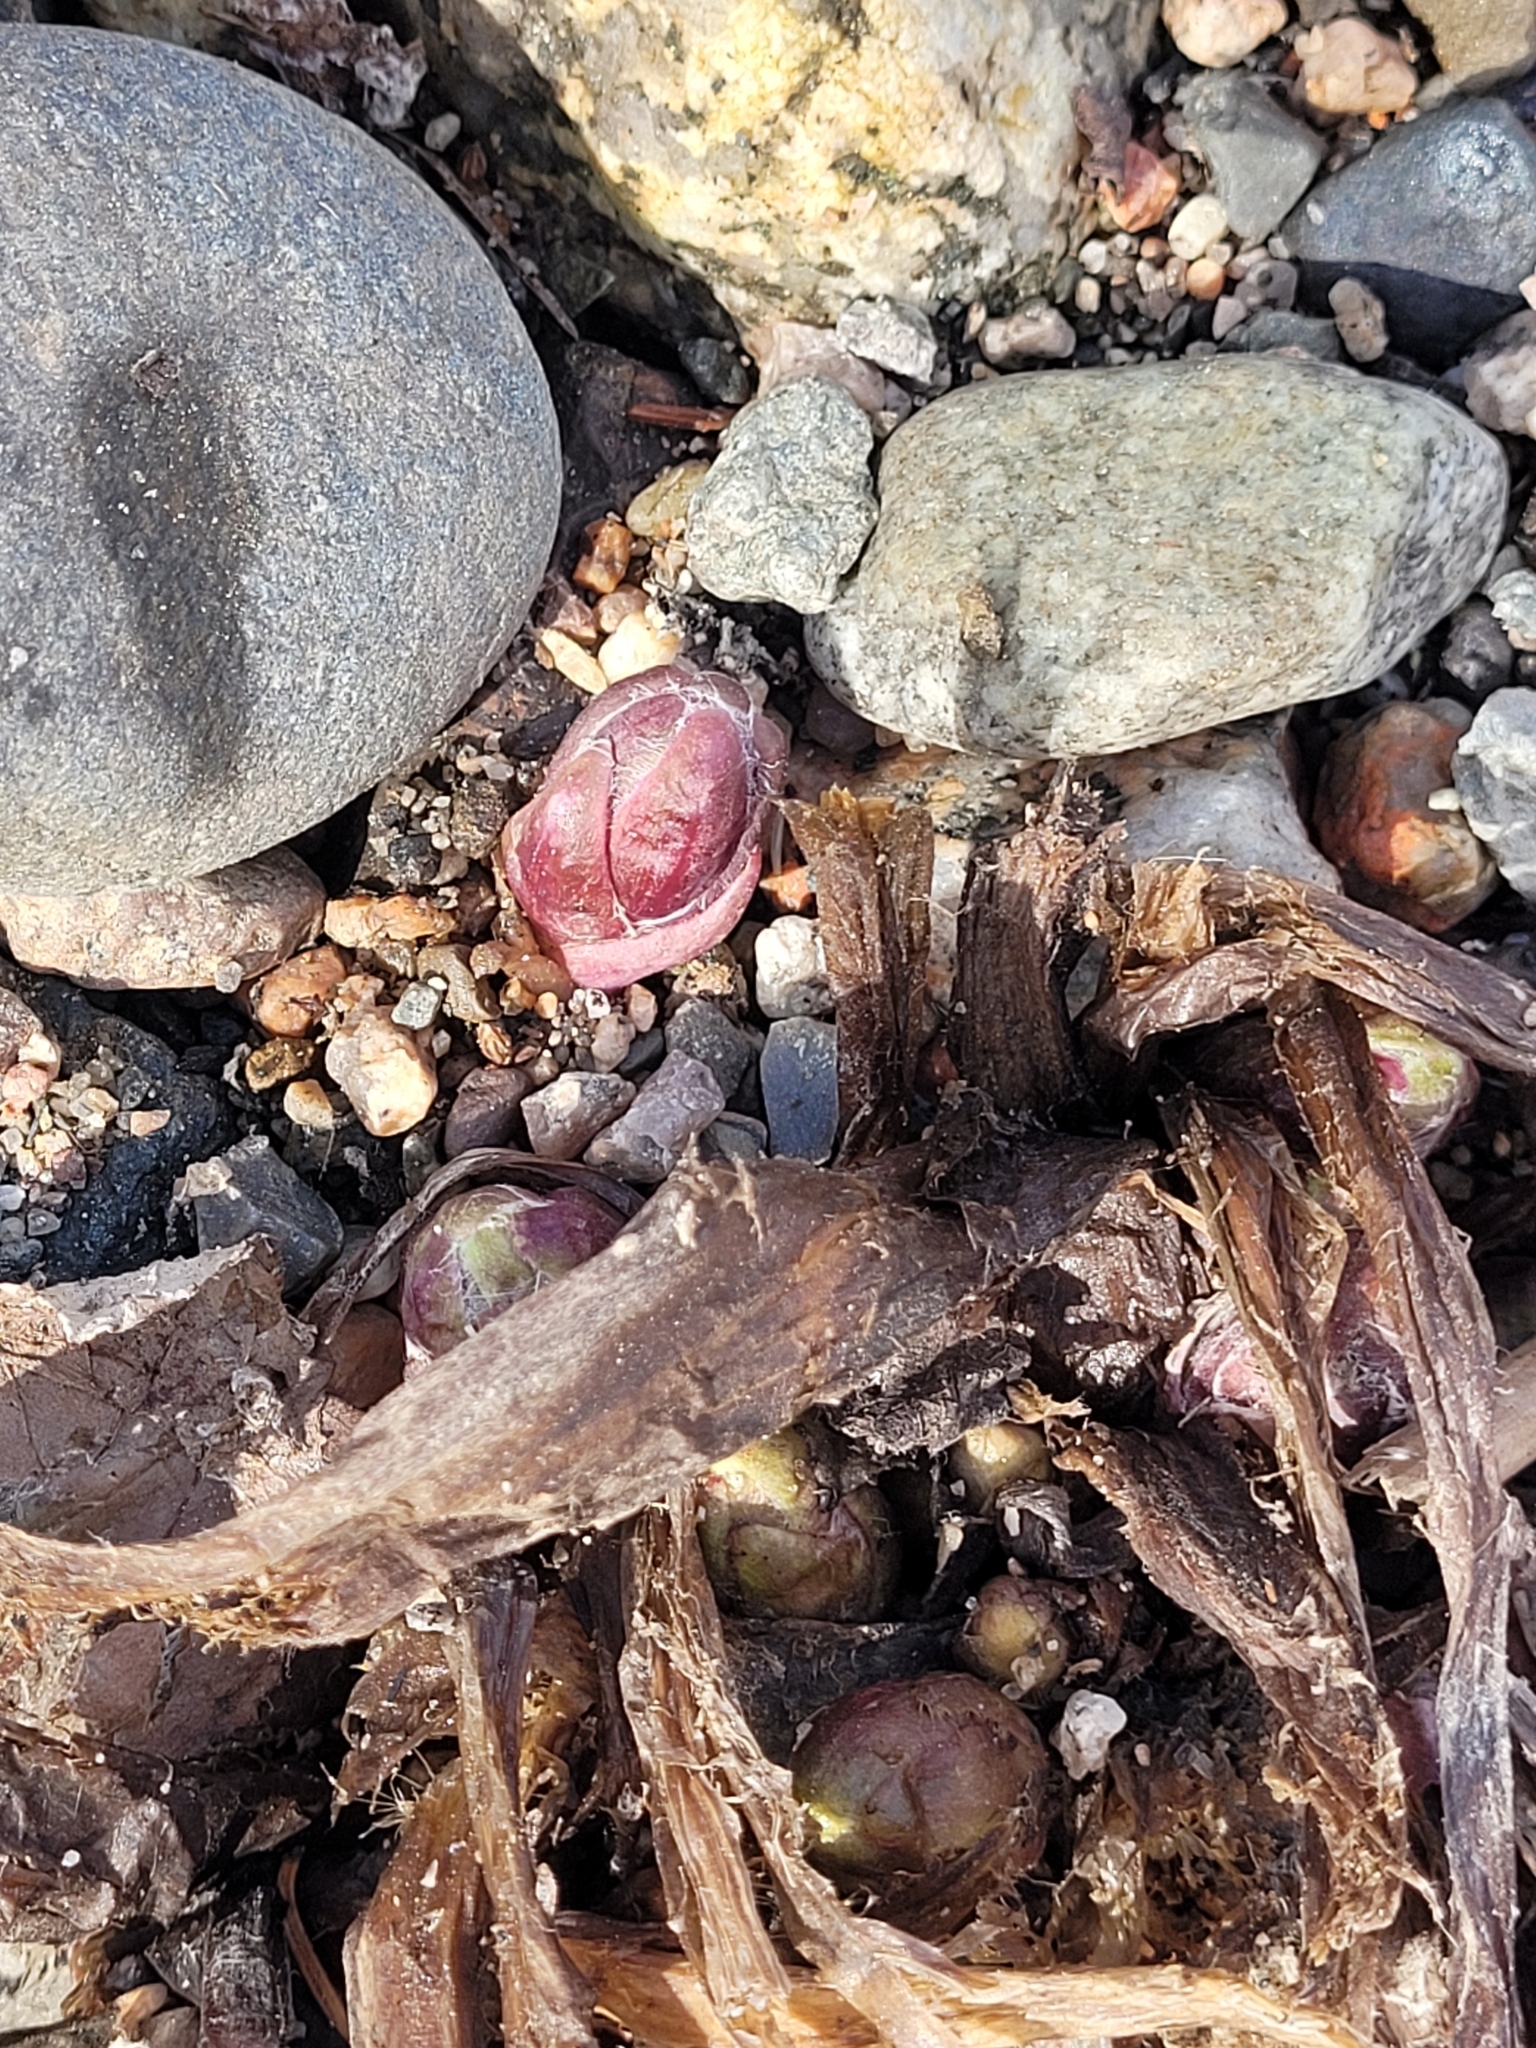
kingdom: Plantae
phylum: Tracheophyta
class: Magnoliopsida
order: Asterales
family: Asteraceae
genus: Tussilago
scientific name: Tussilago farfara
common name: Coltsfoot
